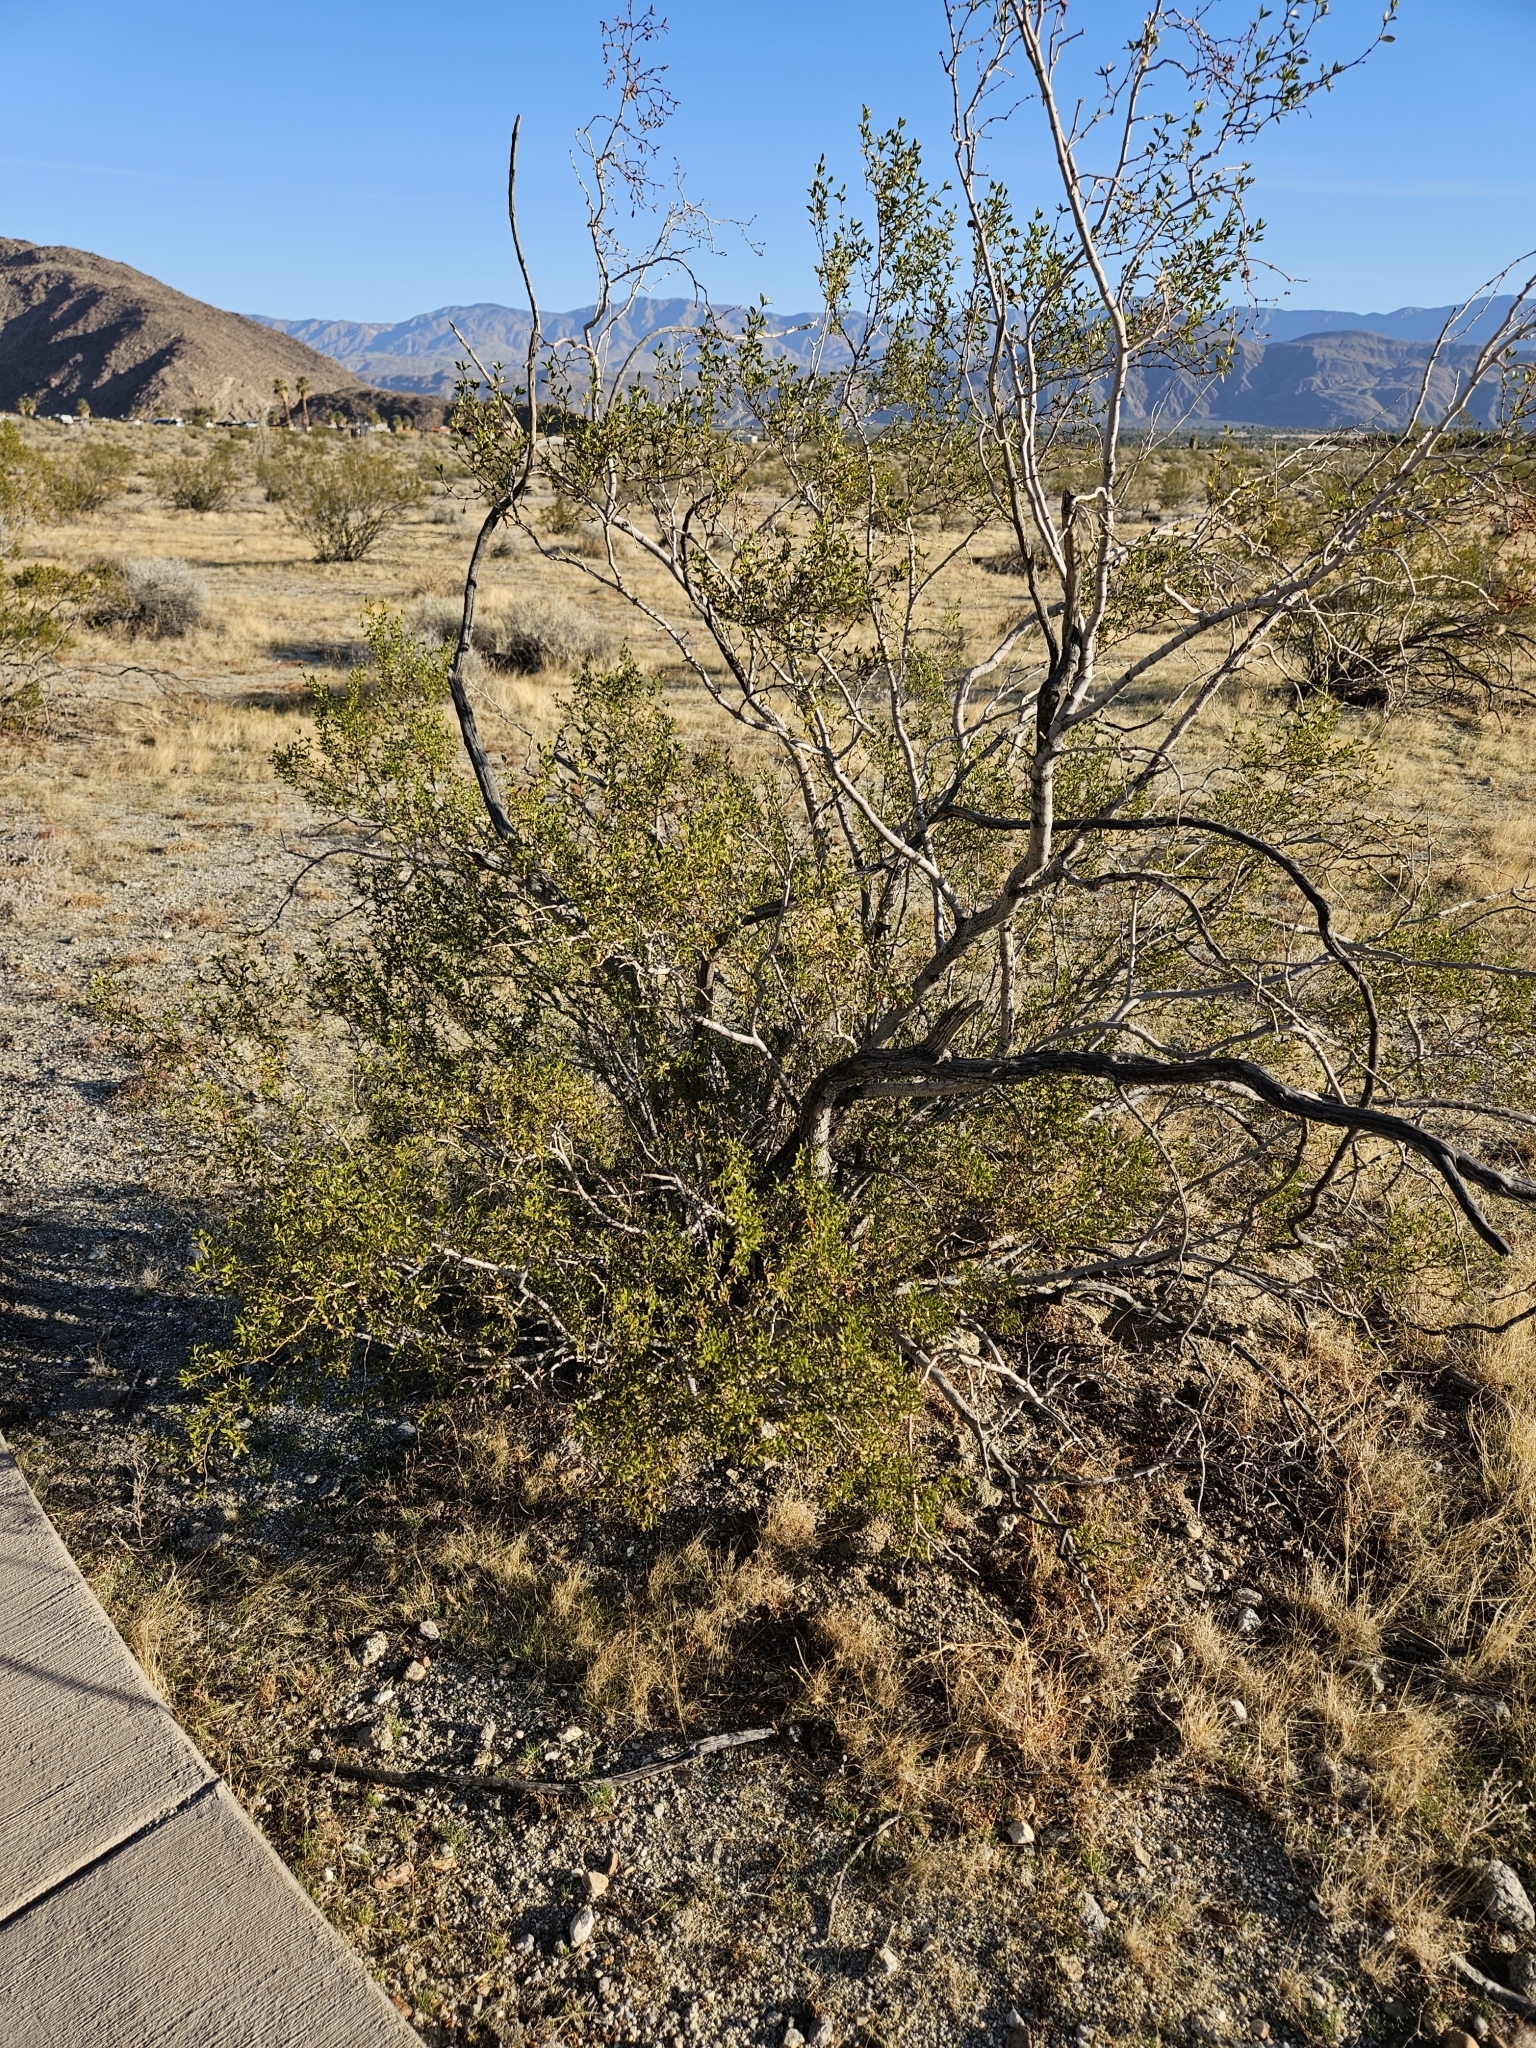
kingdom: Plantae
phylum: Tracheophyta
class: Magnoliopsida
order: Zygophyllales
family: Zygophyllaceae
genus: Larrea
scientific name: Larrea tridentata
